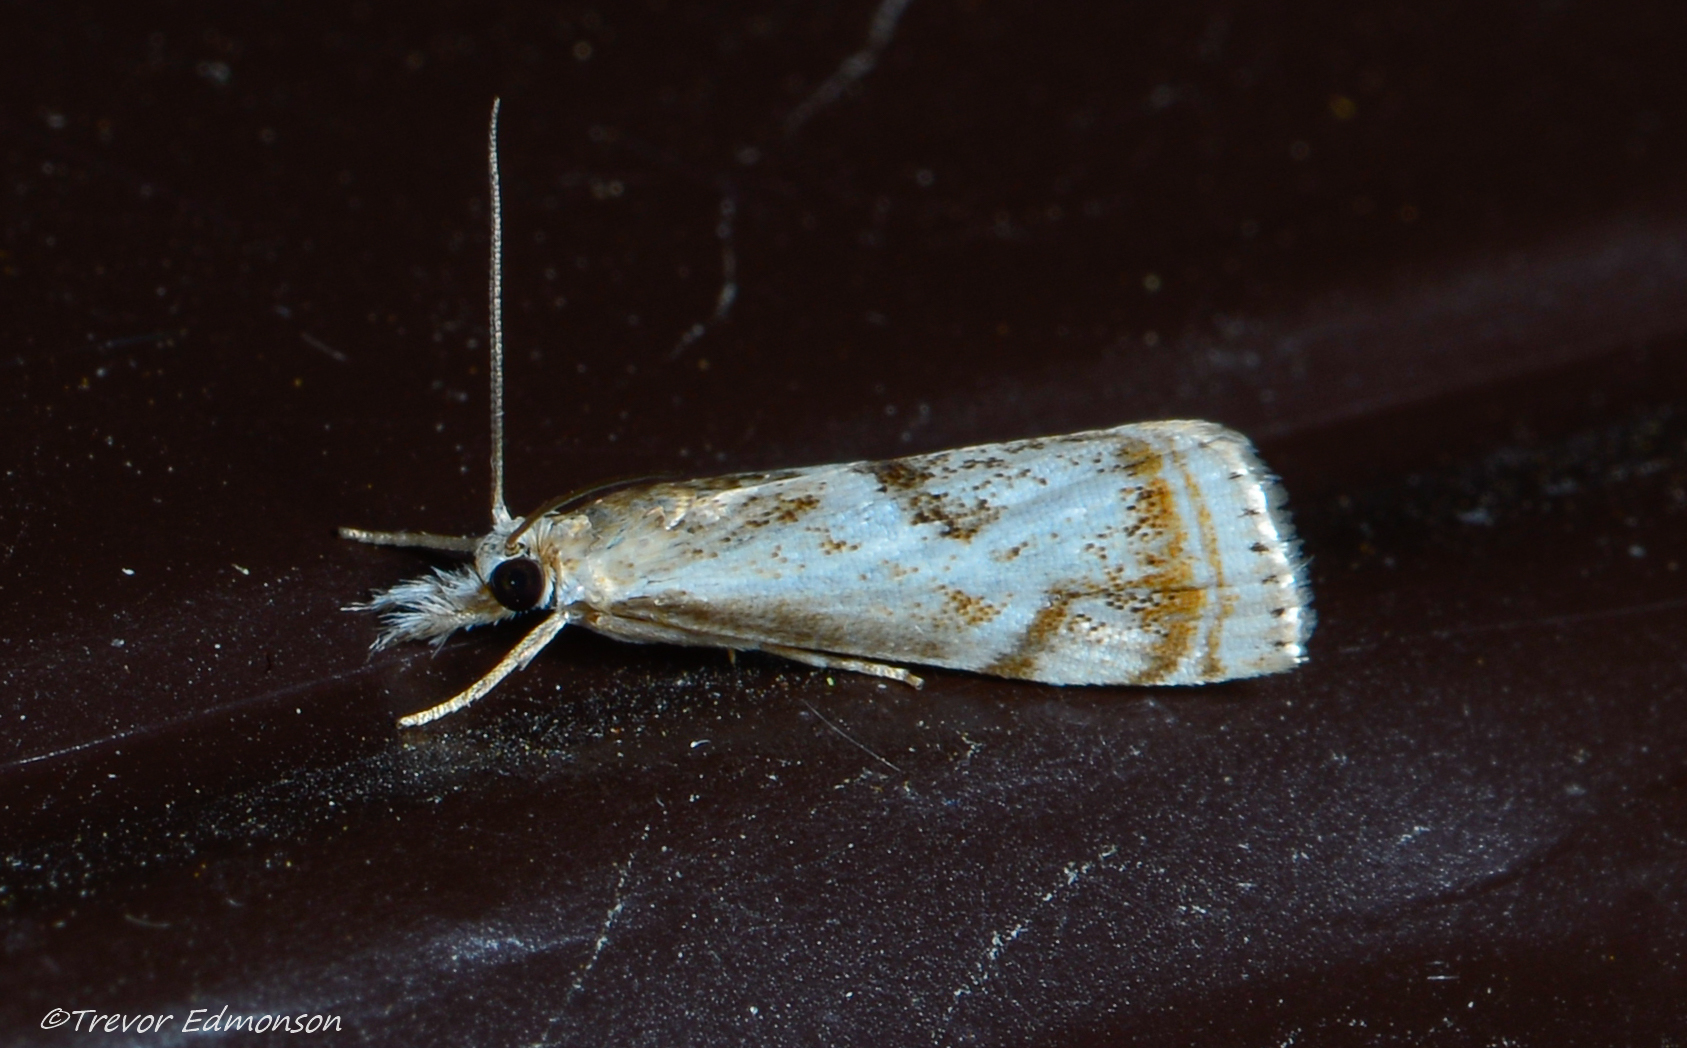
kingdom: Animalia
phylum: Arthropoda
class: Insecta
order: Lepidoptera
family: Crambidae
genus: Microcrambus
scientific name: Microcrambus elegans
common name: Elegant grass-veneer
